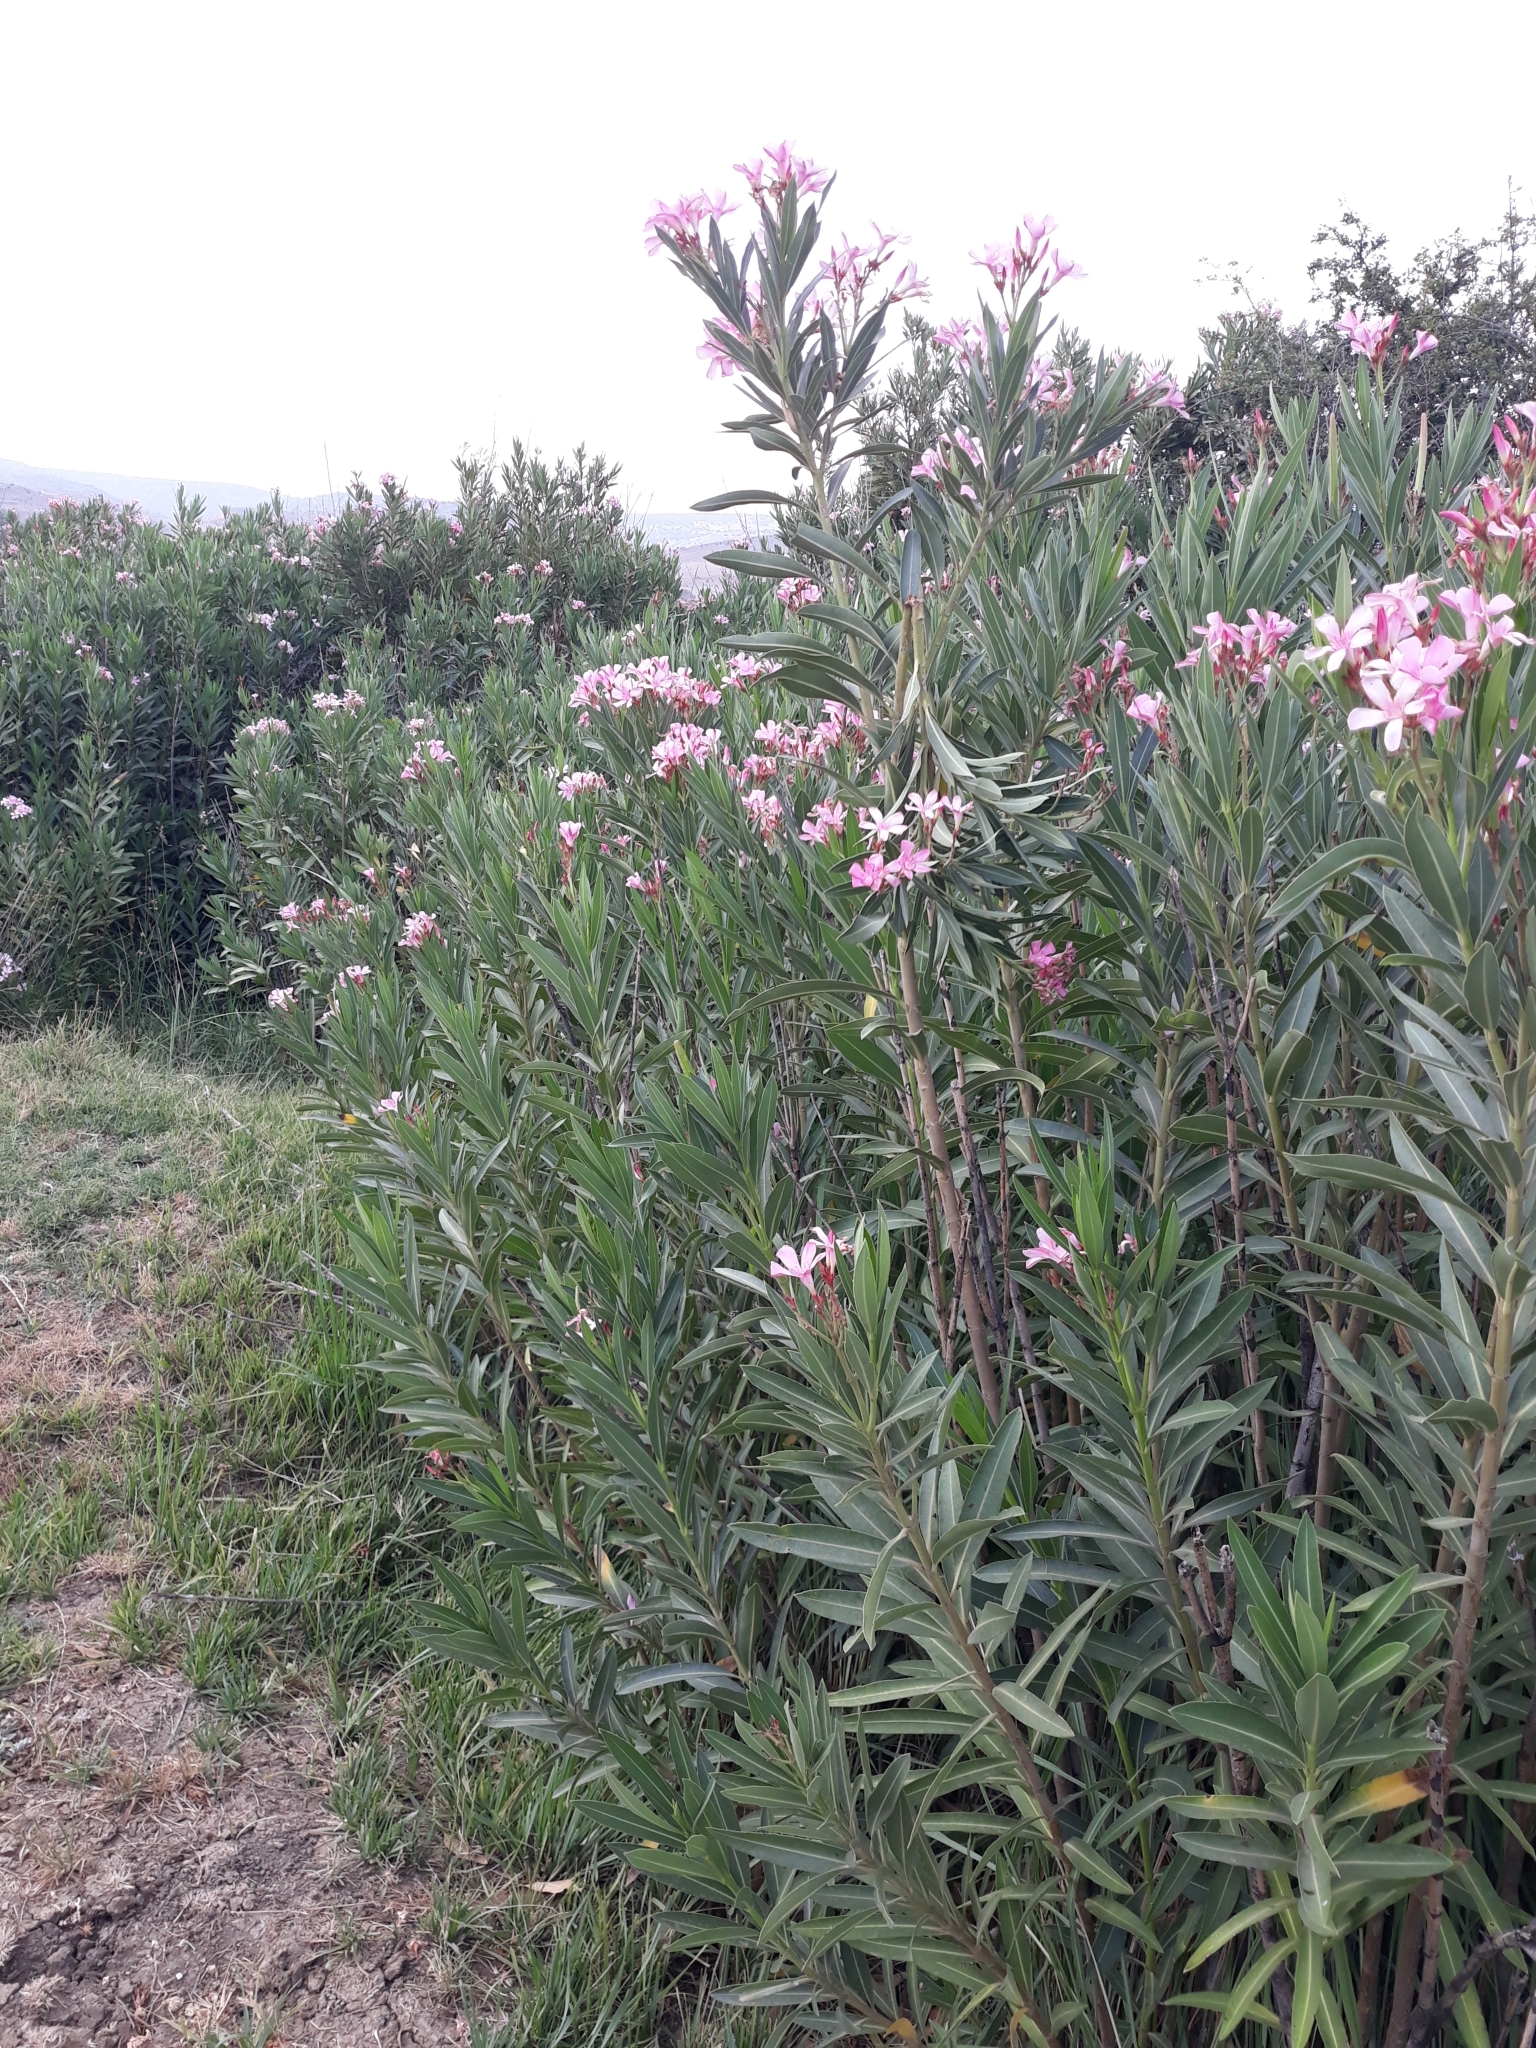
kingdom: Plantae
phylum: Tracheophyta
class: Magnoliopsida
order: Gentianales
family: Apocynaceae
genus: Nerium
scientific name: Nerium oleander
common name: Oleander
